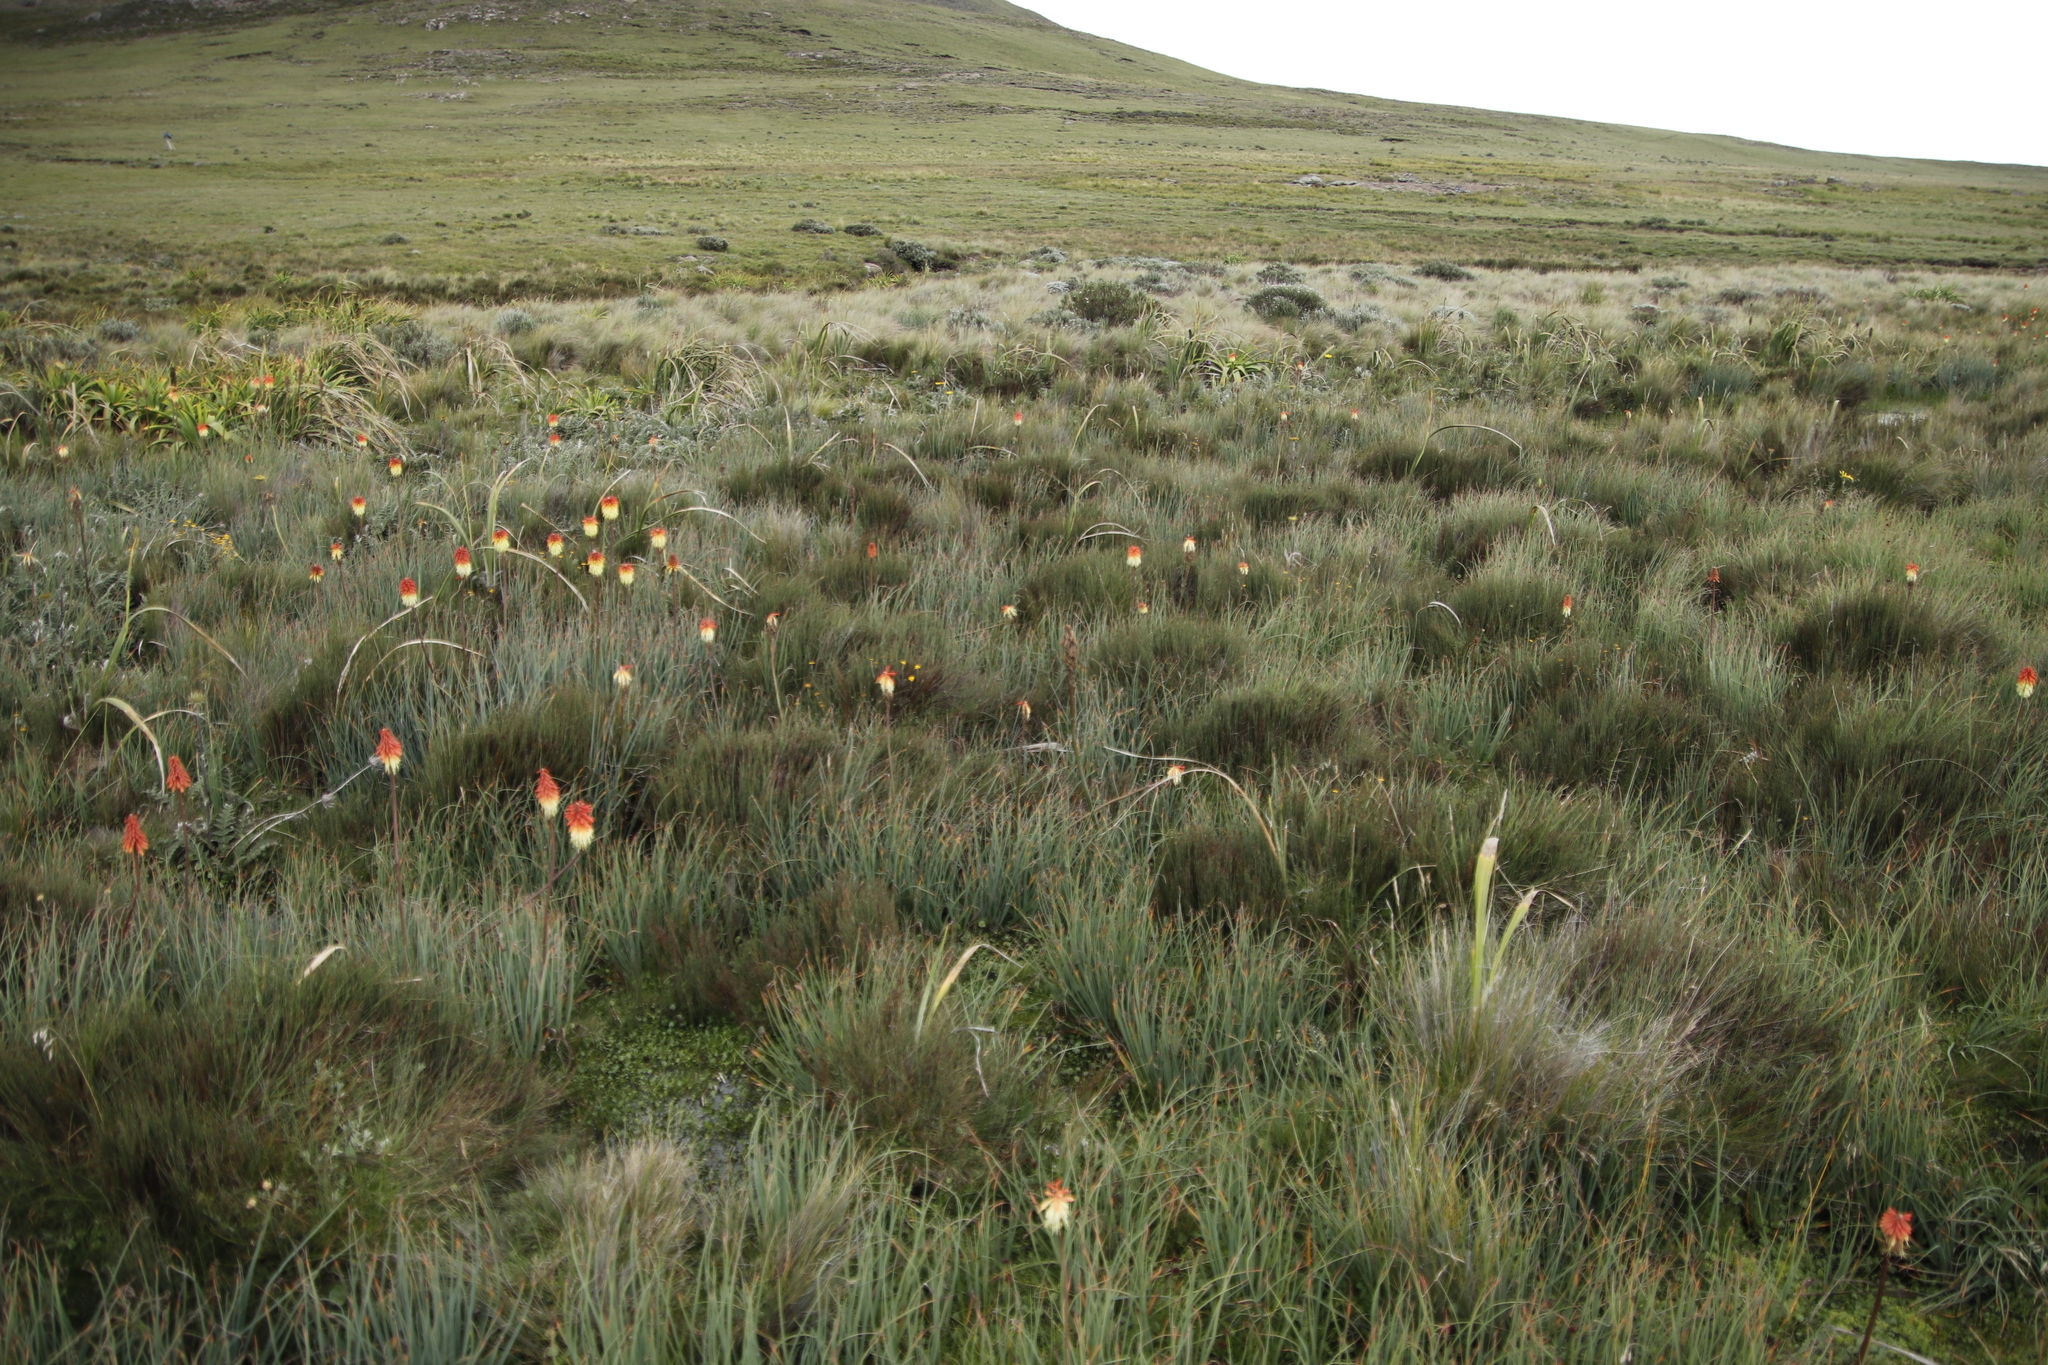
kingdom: Plantae
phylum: Tracheophyta
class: Liliopsida
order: Asparagales
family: Asphodelaceae
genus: Kniphofia
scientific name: Kniphofia caulescens
